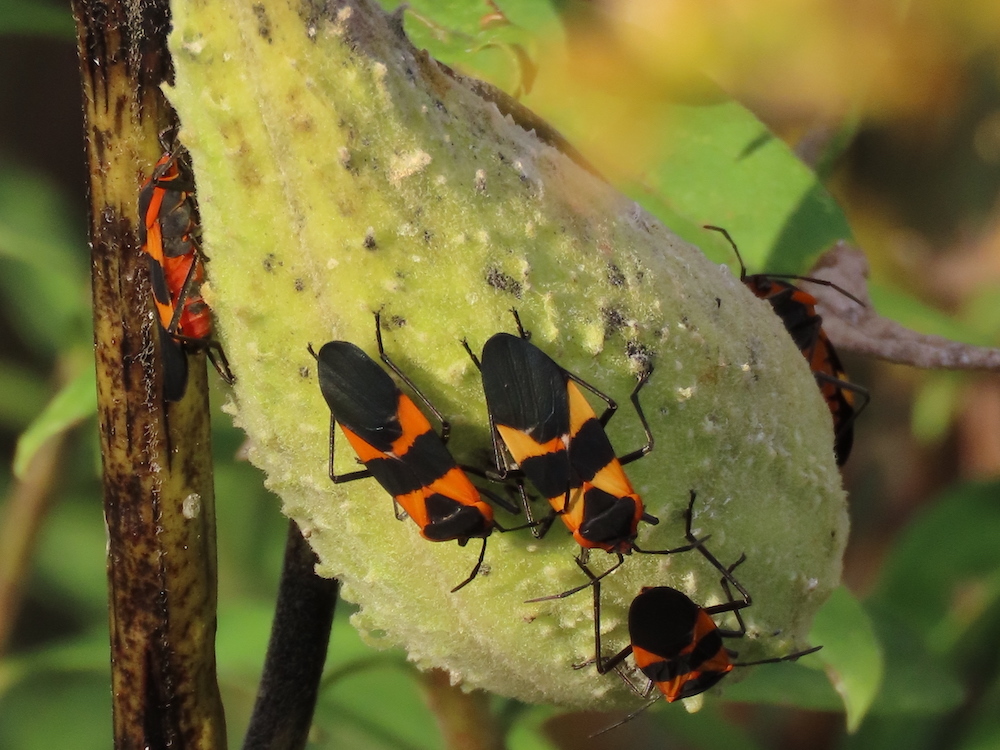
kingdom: Animalia
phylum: Arthropoda
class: Insecta
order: Hemiptera
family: Lygaeidae
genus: Oncopeltus
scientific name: Oncopeltus fasciatus
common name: Large milkweed bug
